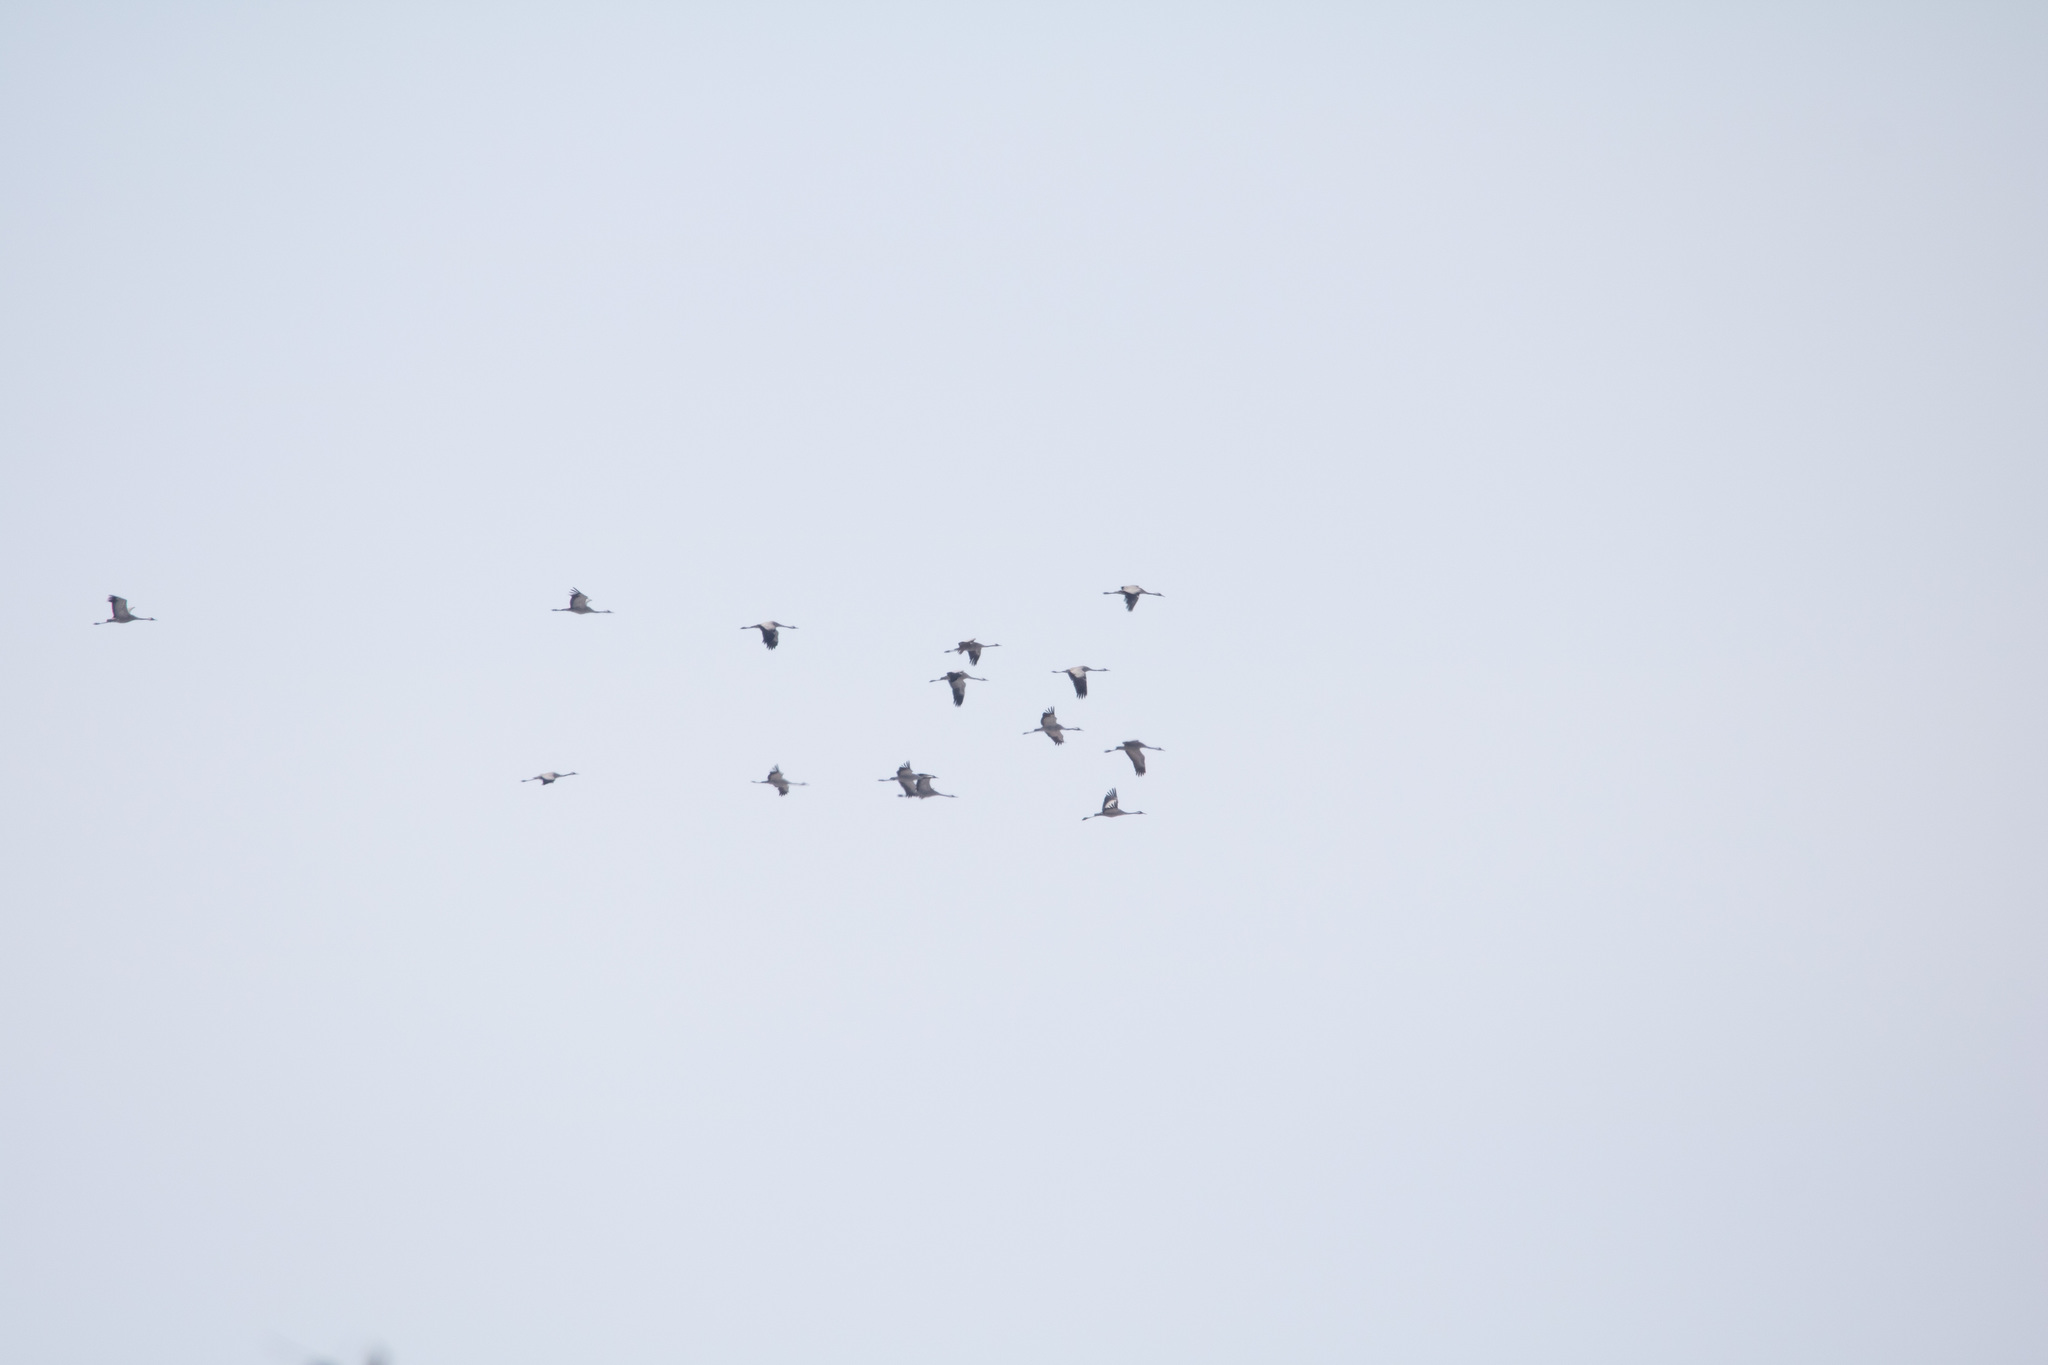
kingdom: Animalia
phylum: Chordata
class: Aves
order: Gruiformes
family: Gruidae
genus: Grus
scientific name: Grus grus
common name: Common crane
